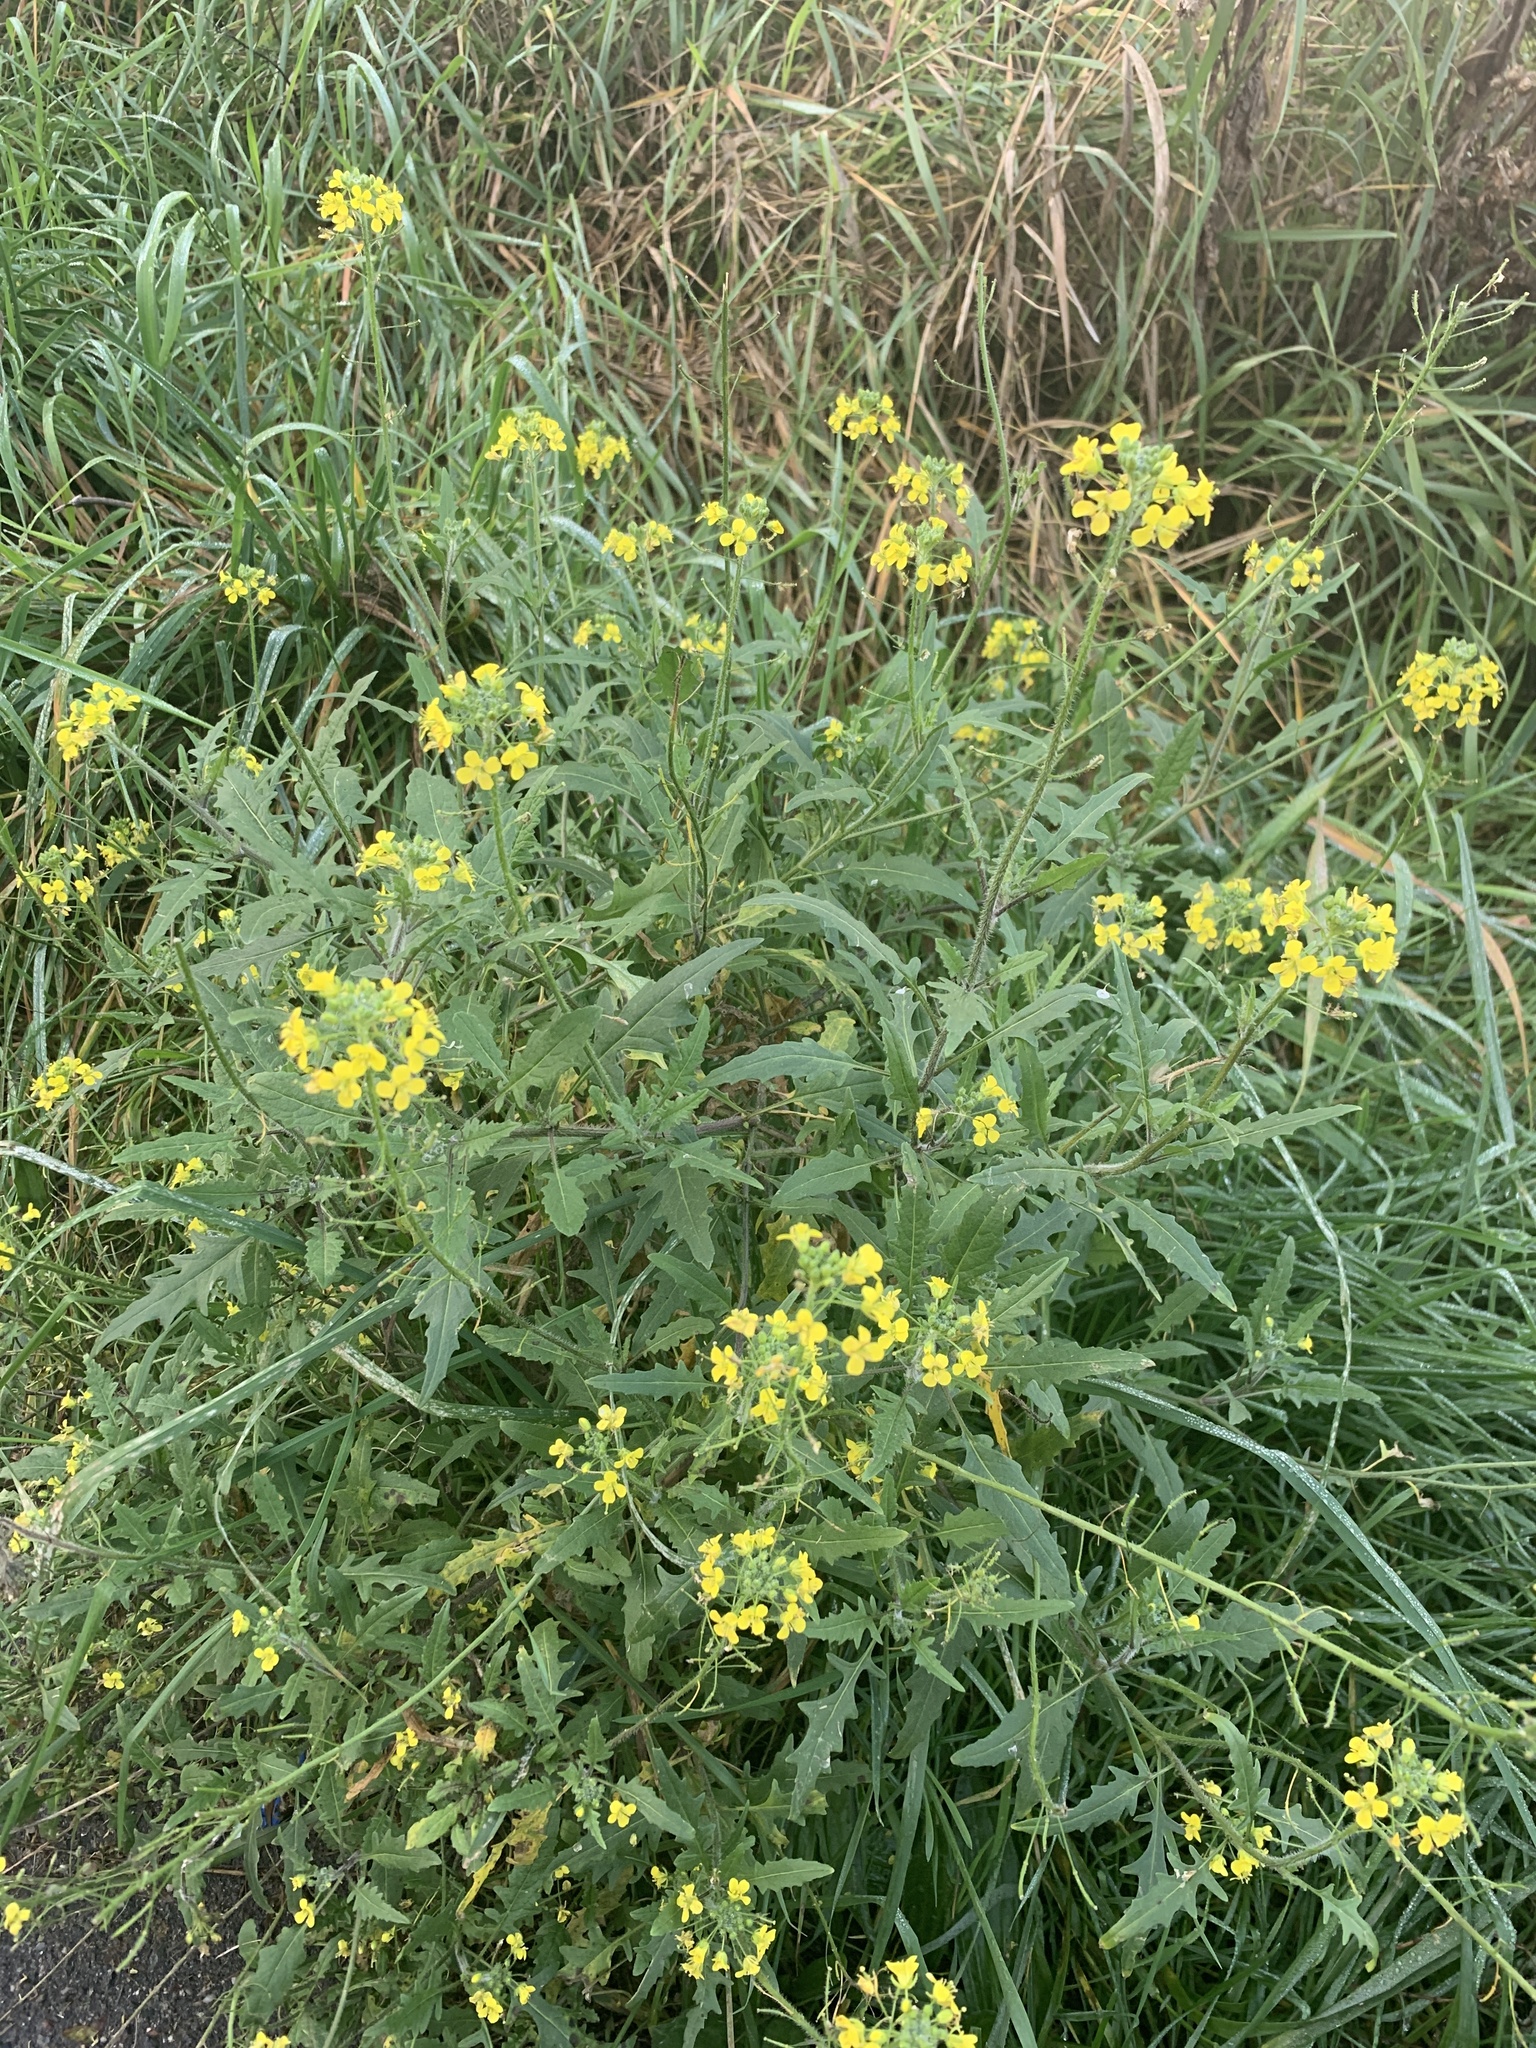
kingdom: Plantae
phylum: Tracheophyta
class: Magnoliopsida
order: Brassicales
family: Brassicaceae
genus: Sisymbrium
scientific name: Sisymbrium loeselii
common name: False london-rocket
